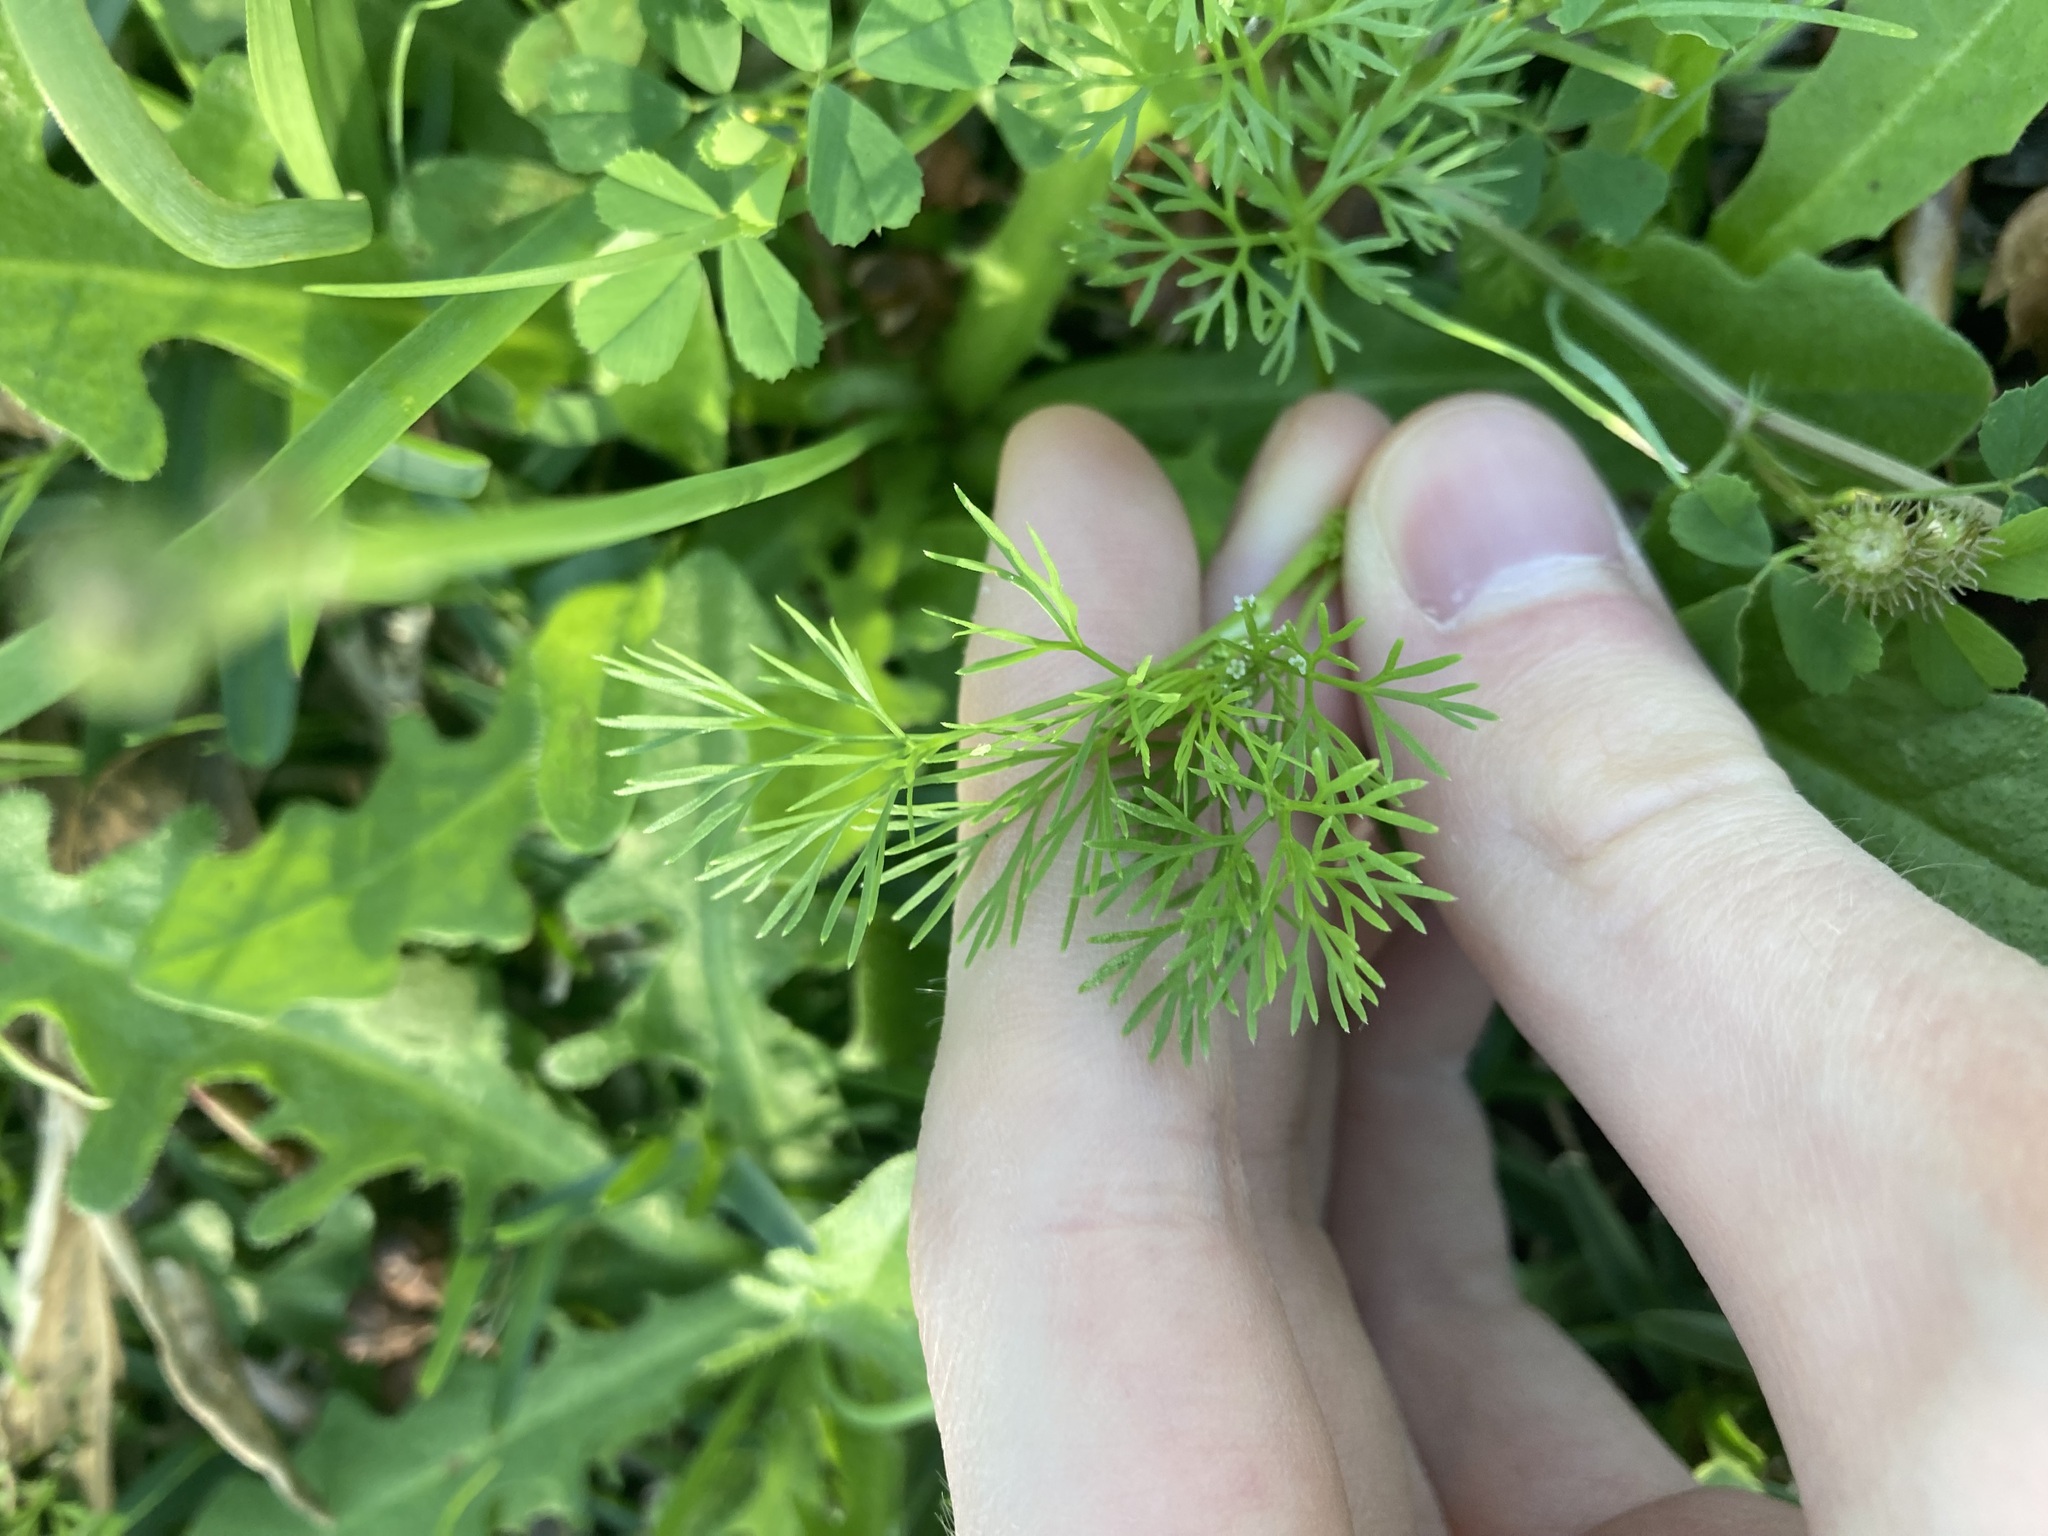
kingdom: Plantae
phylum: Tracheophyta
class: Magnoliopsida
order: Apiales
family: Apiaceae
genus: Cyclospermum
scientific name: Cyclospermum leptophyllum
